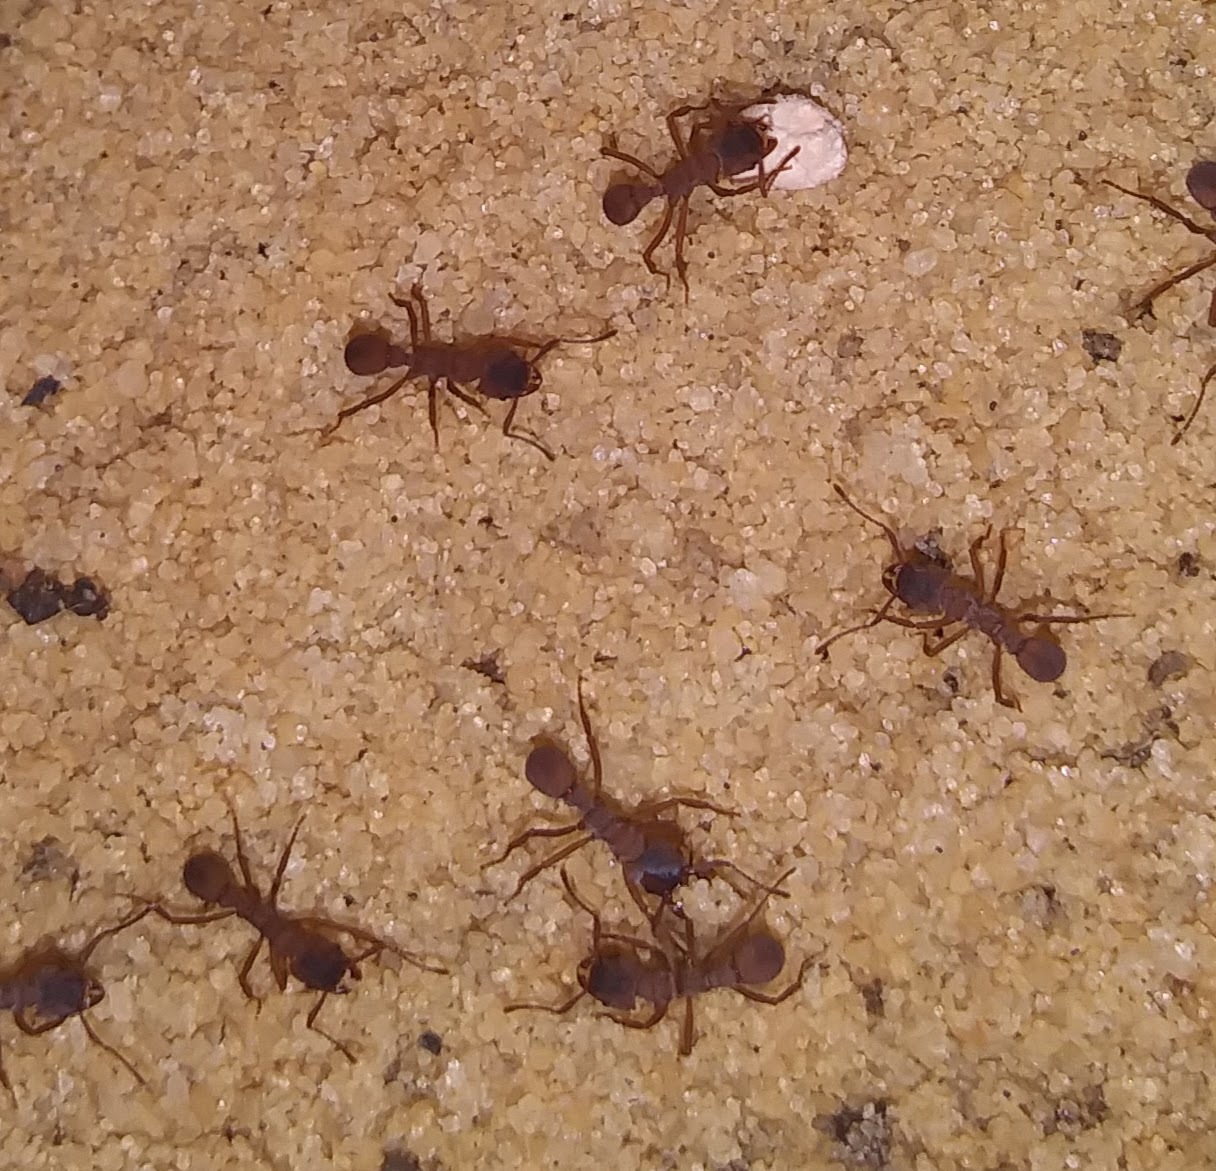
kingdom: Animalia
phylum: Arthropoda
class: Insecta
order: Hymenoptera
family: Formicidae
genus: Trachymyrmex
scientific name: Trachymyrmex septentrionalis
